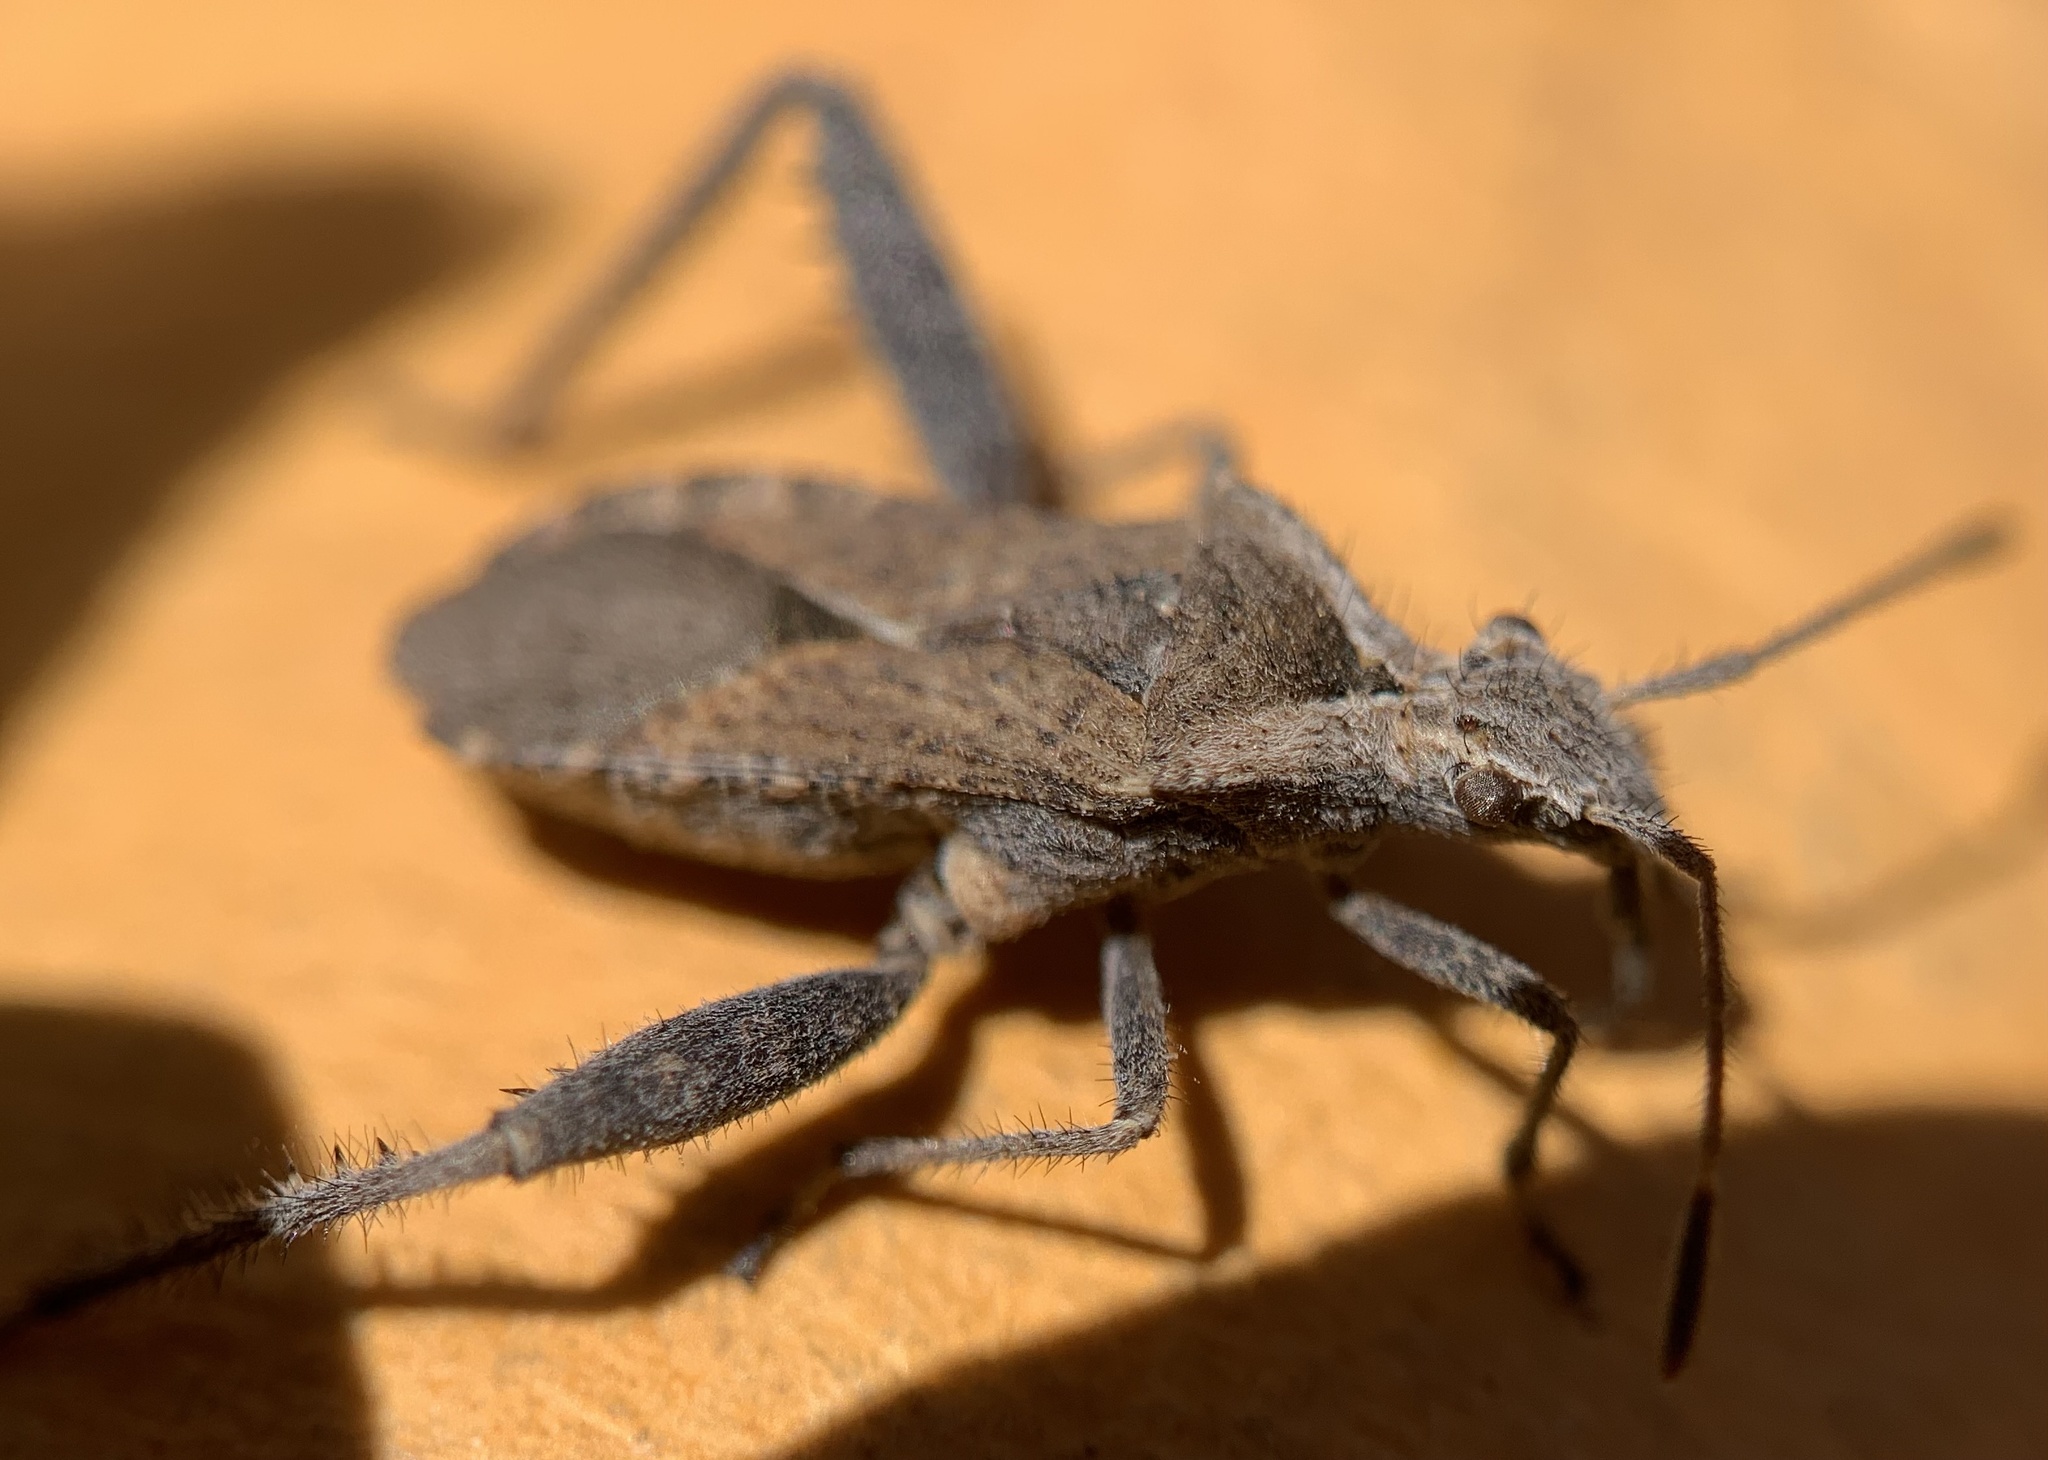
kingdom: Animalia
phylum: Arthropoda
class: Insecta
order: Hemiptera
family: Alydidae
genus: Stachyocnemus
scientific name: Stachyocnemus apicalis
